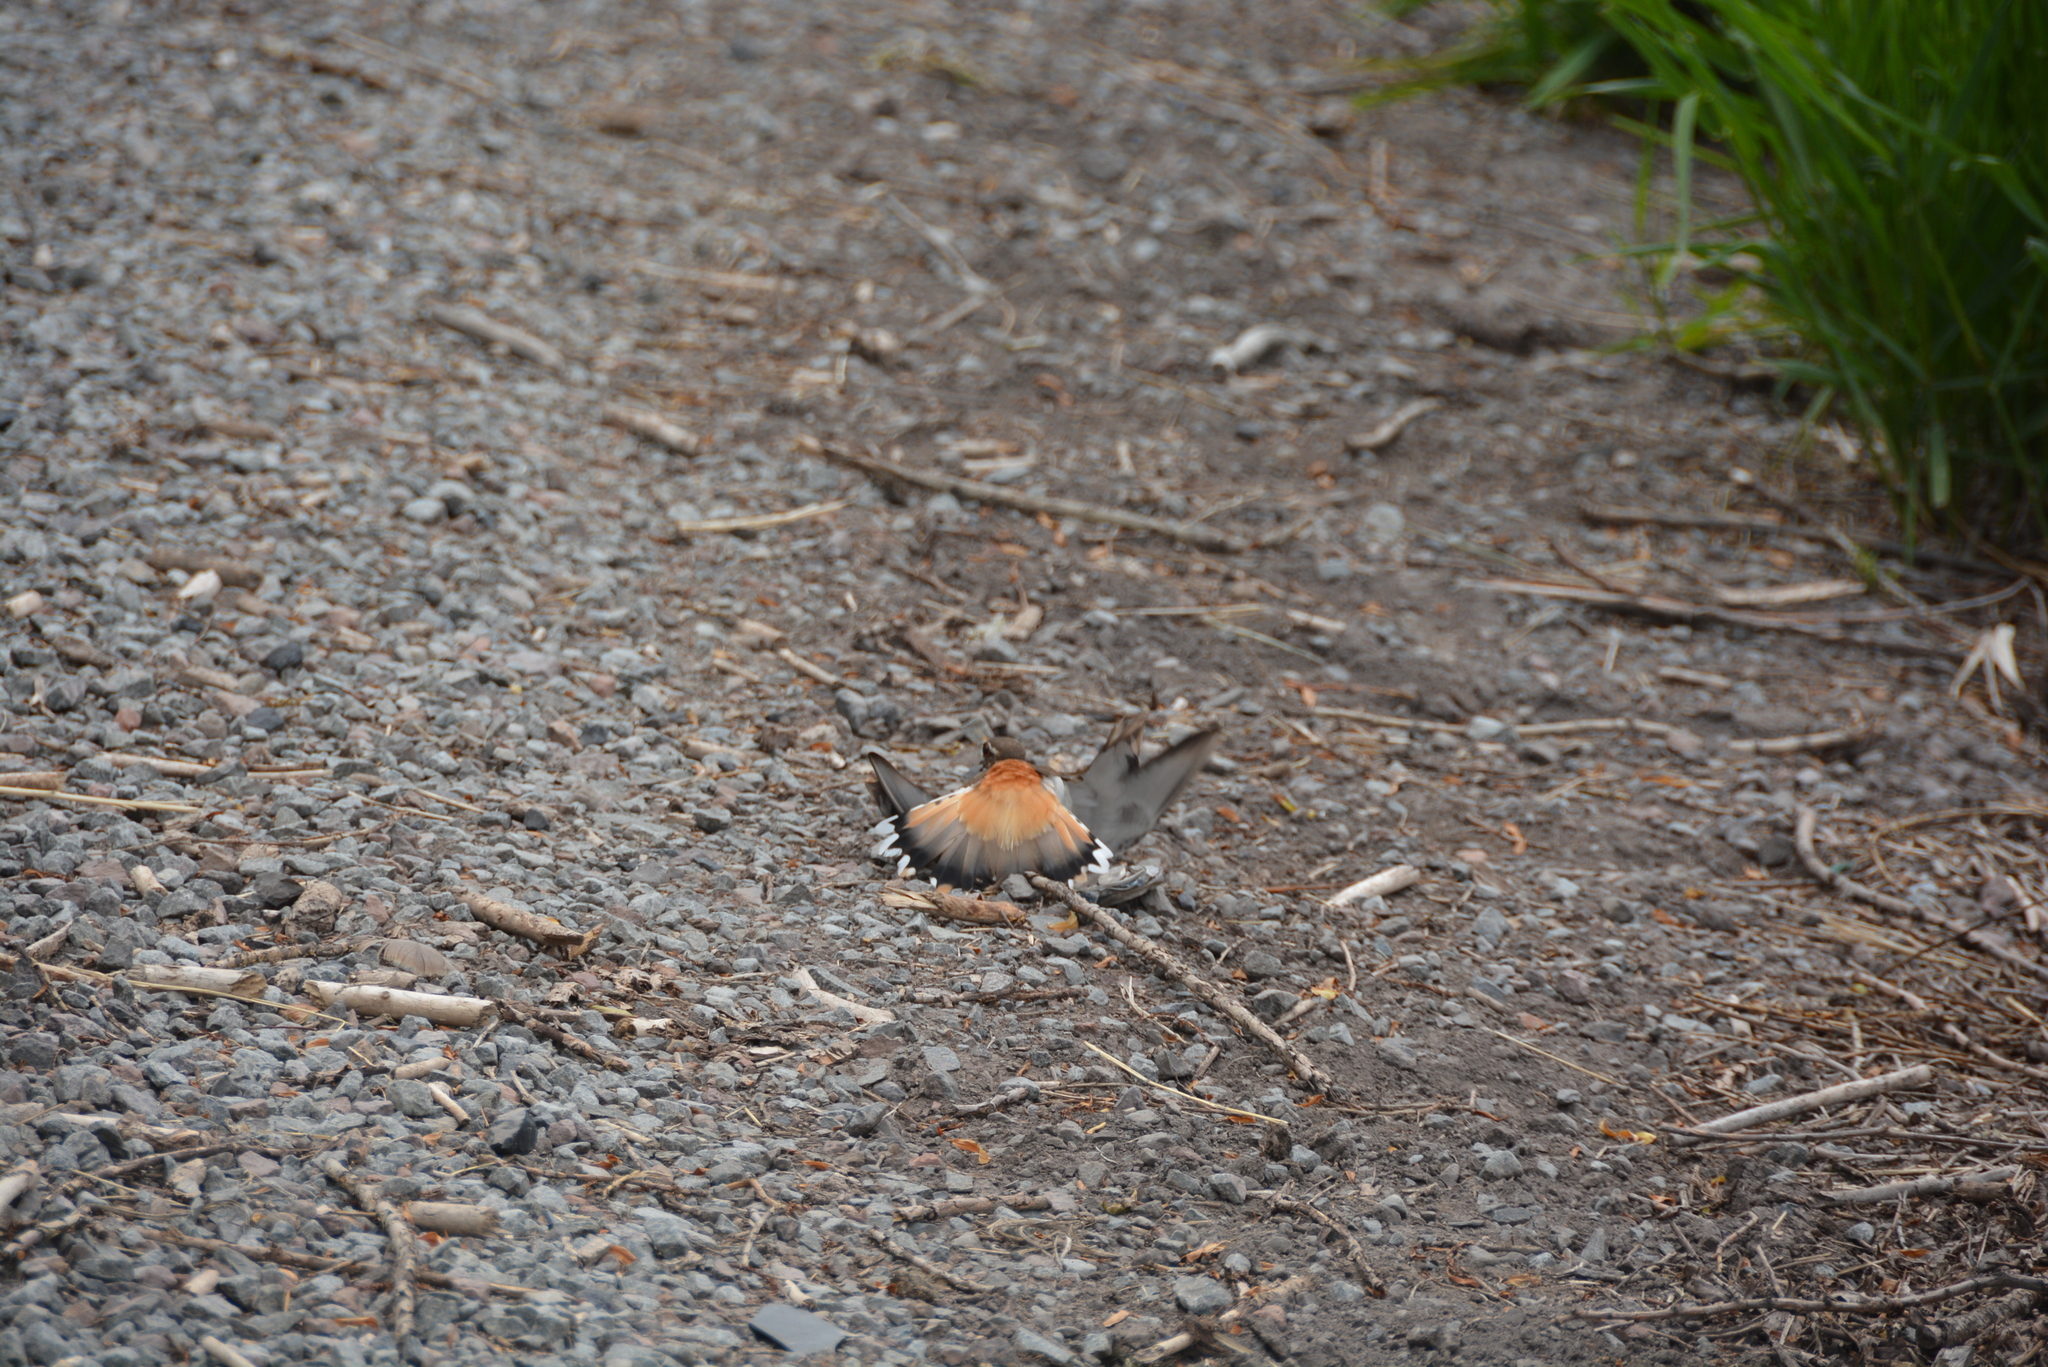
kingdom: Animalia
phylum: Chordata
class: Aves
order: Charadriiformes
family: Charadriidae
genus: Charadrius
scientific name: Charadrius vociferus
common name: Killdeer
